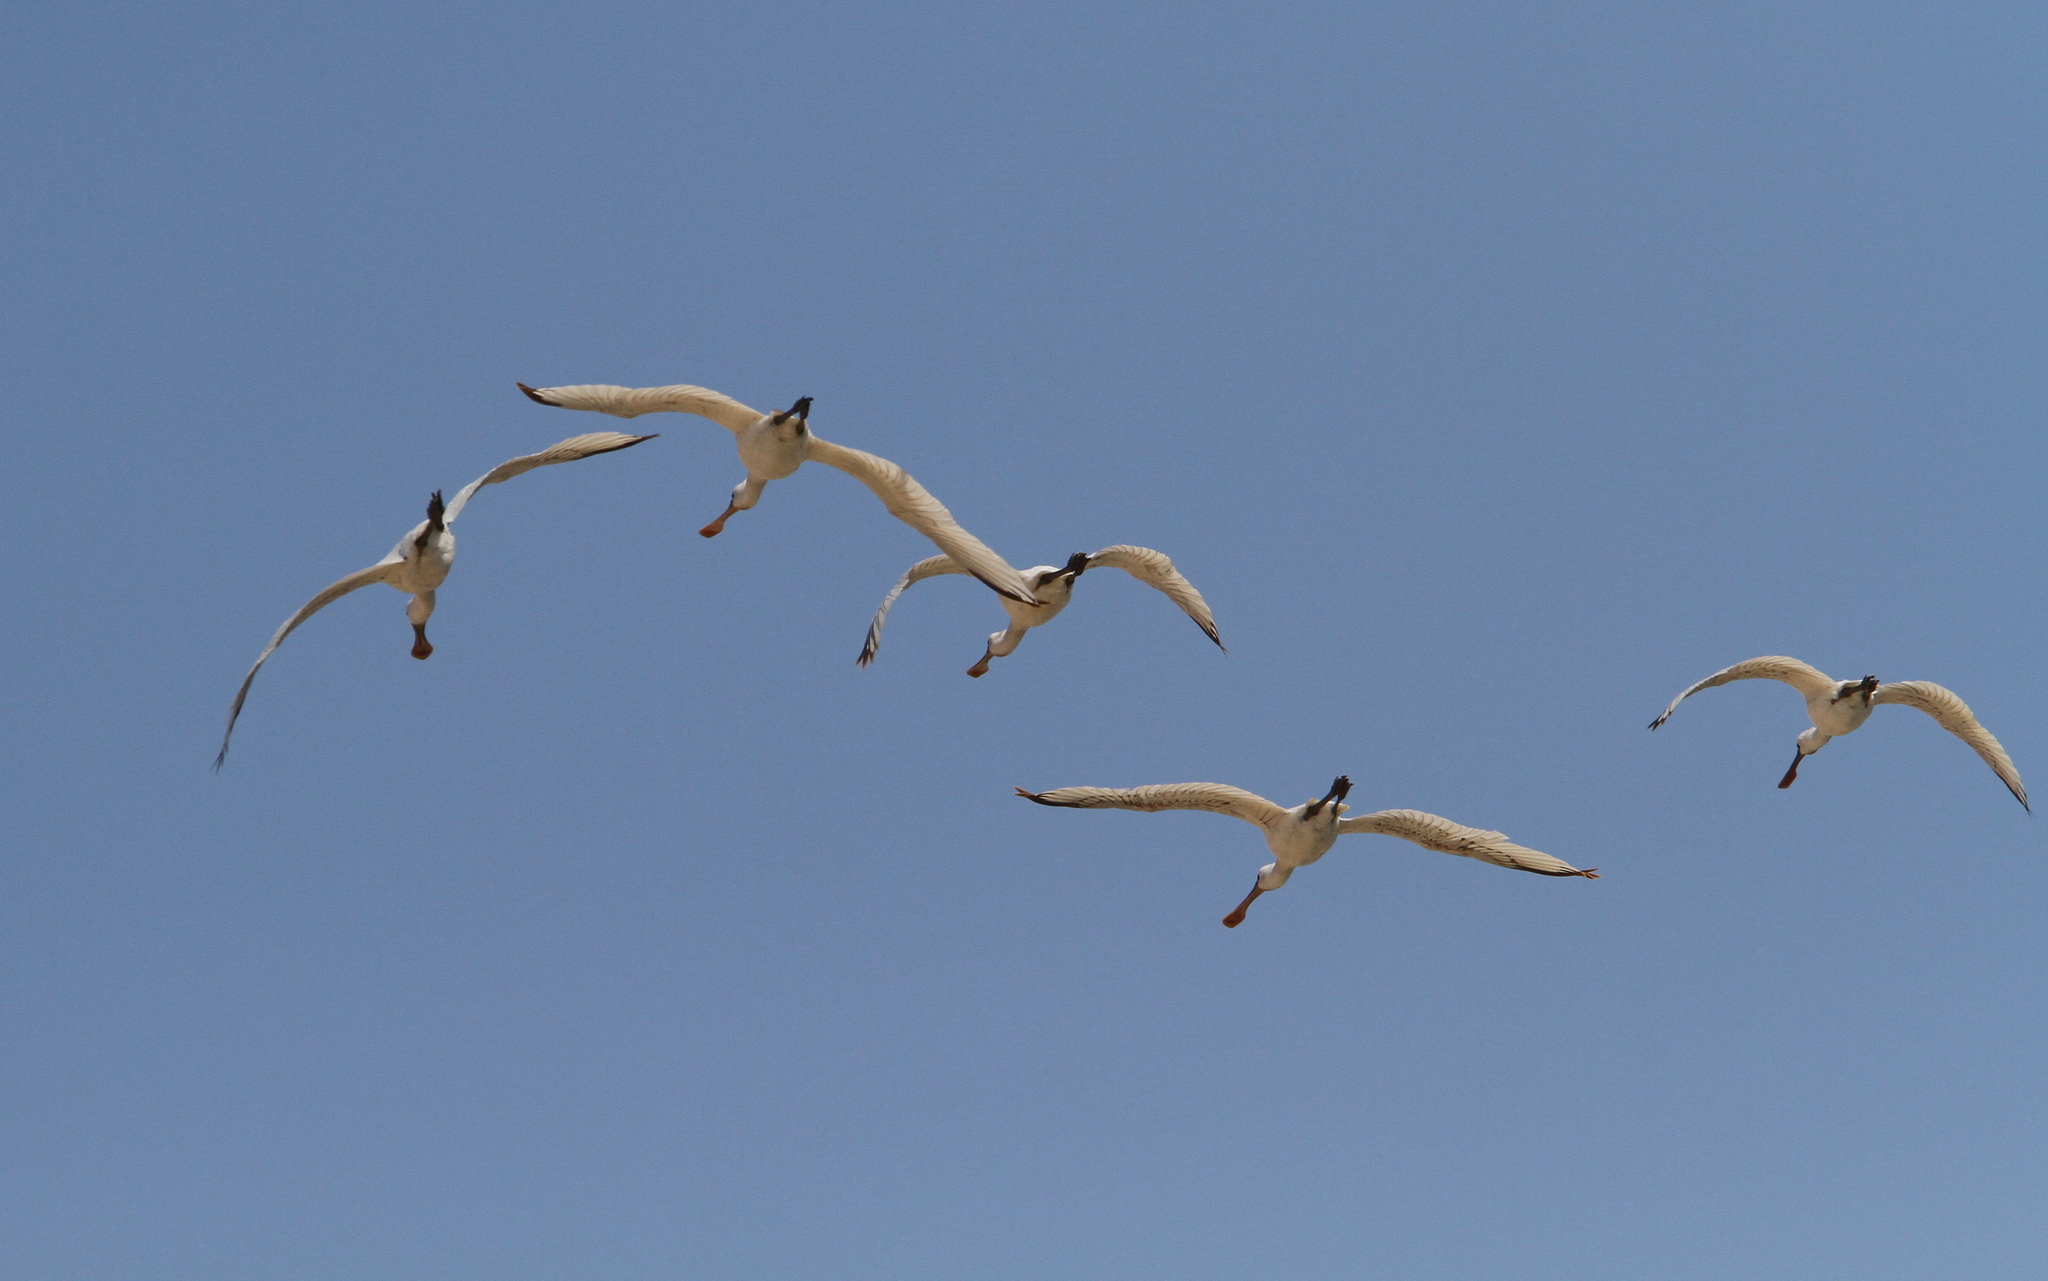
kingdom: Animalia
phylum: Chordata
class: Aves
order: Pelecaniformes
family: Threskiornithidae
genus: Platalea
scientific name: Platalea leucorodia
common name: Eurasian spoonbill
